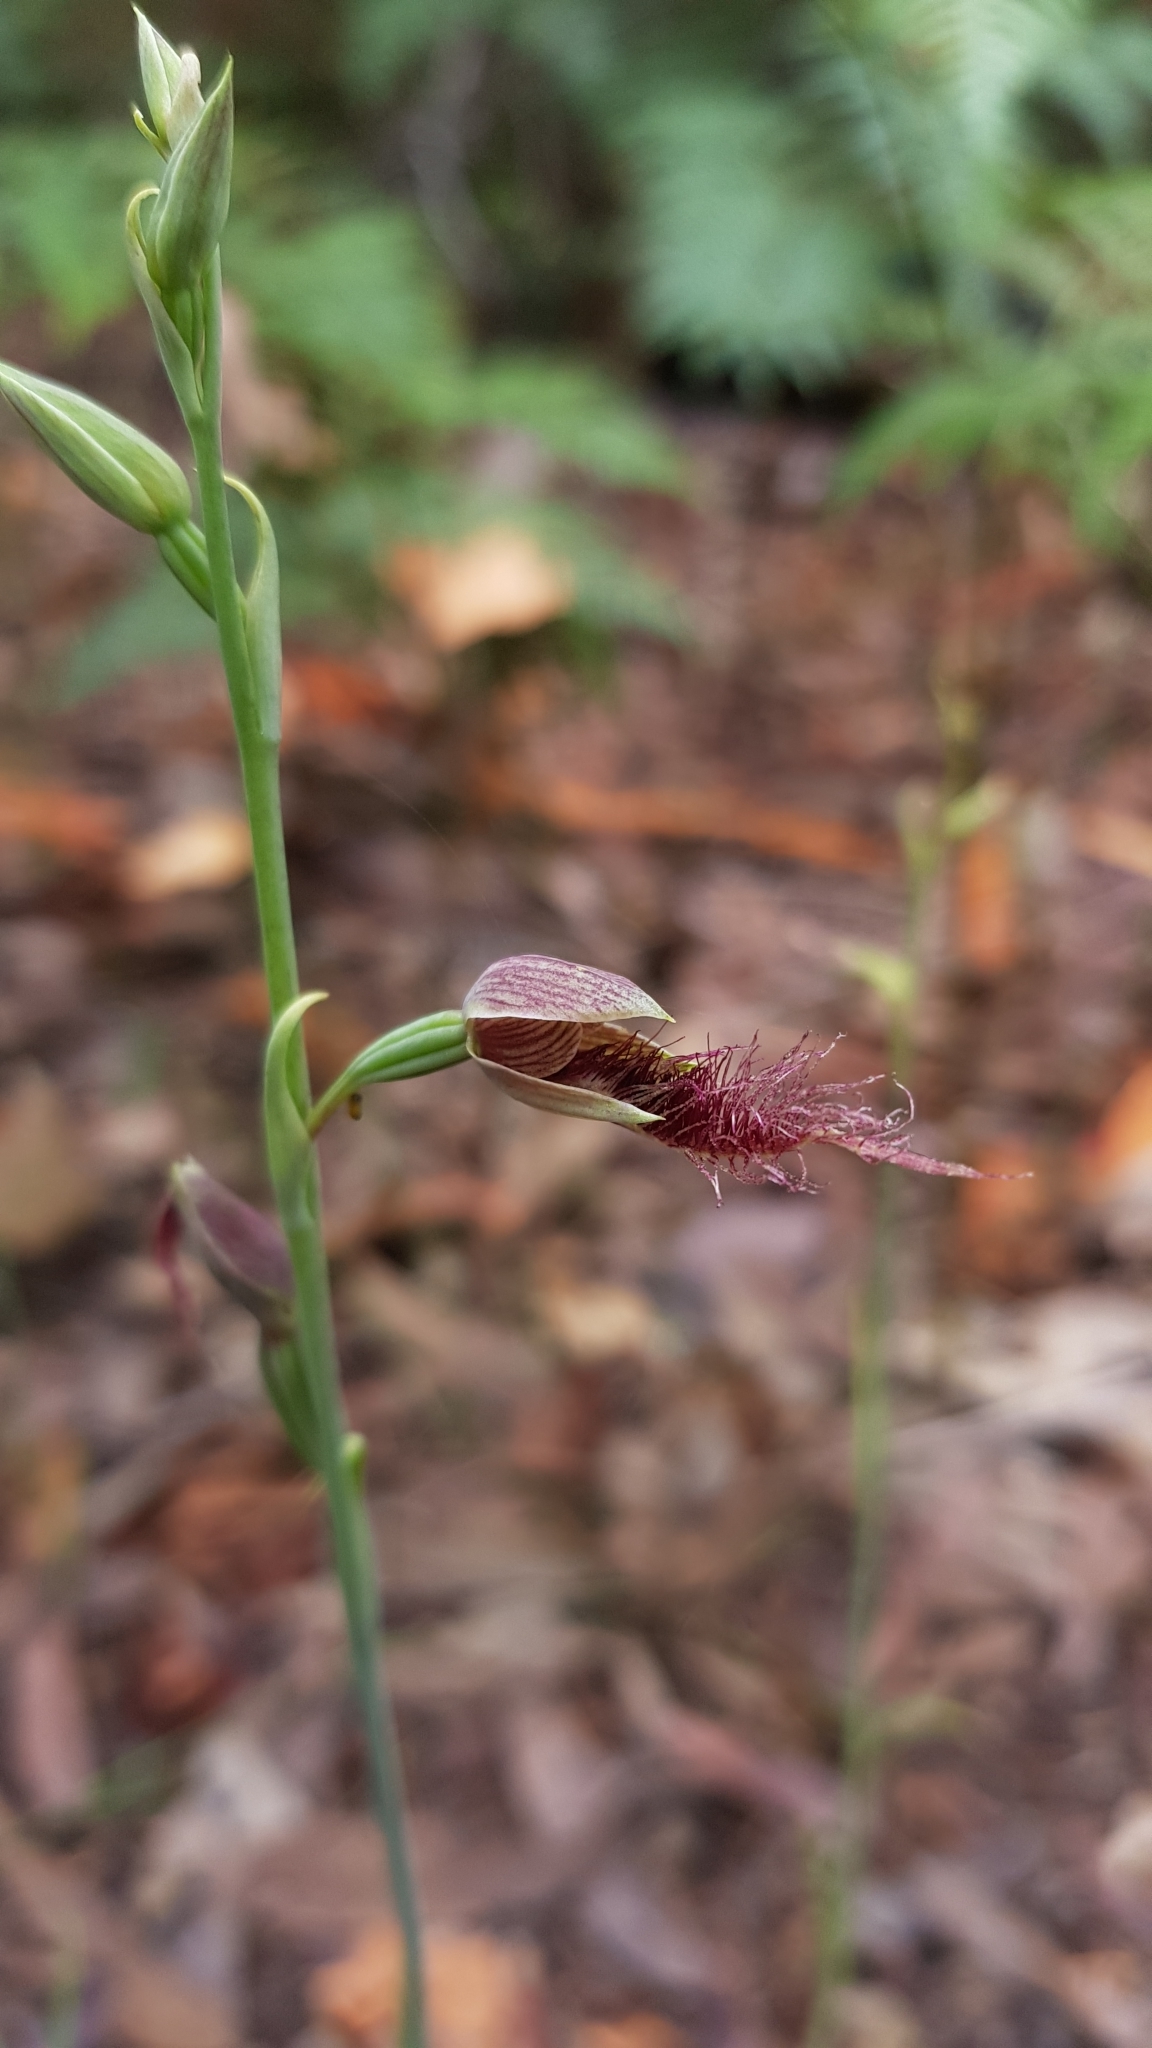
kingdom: Plantae
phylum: Tracheophyta
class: Liliopsida
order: Asparagales
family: Orchidaceae
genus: Calochilus
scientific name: Calochilus gracillimus
